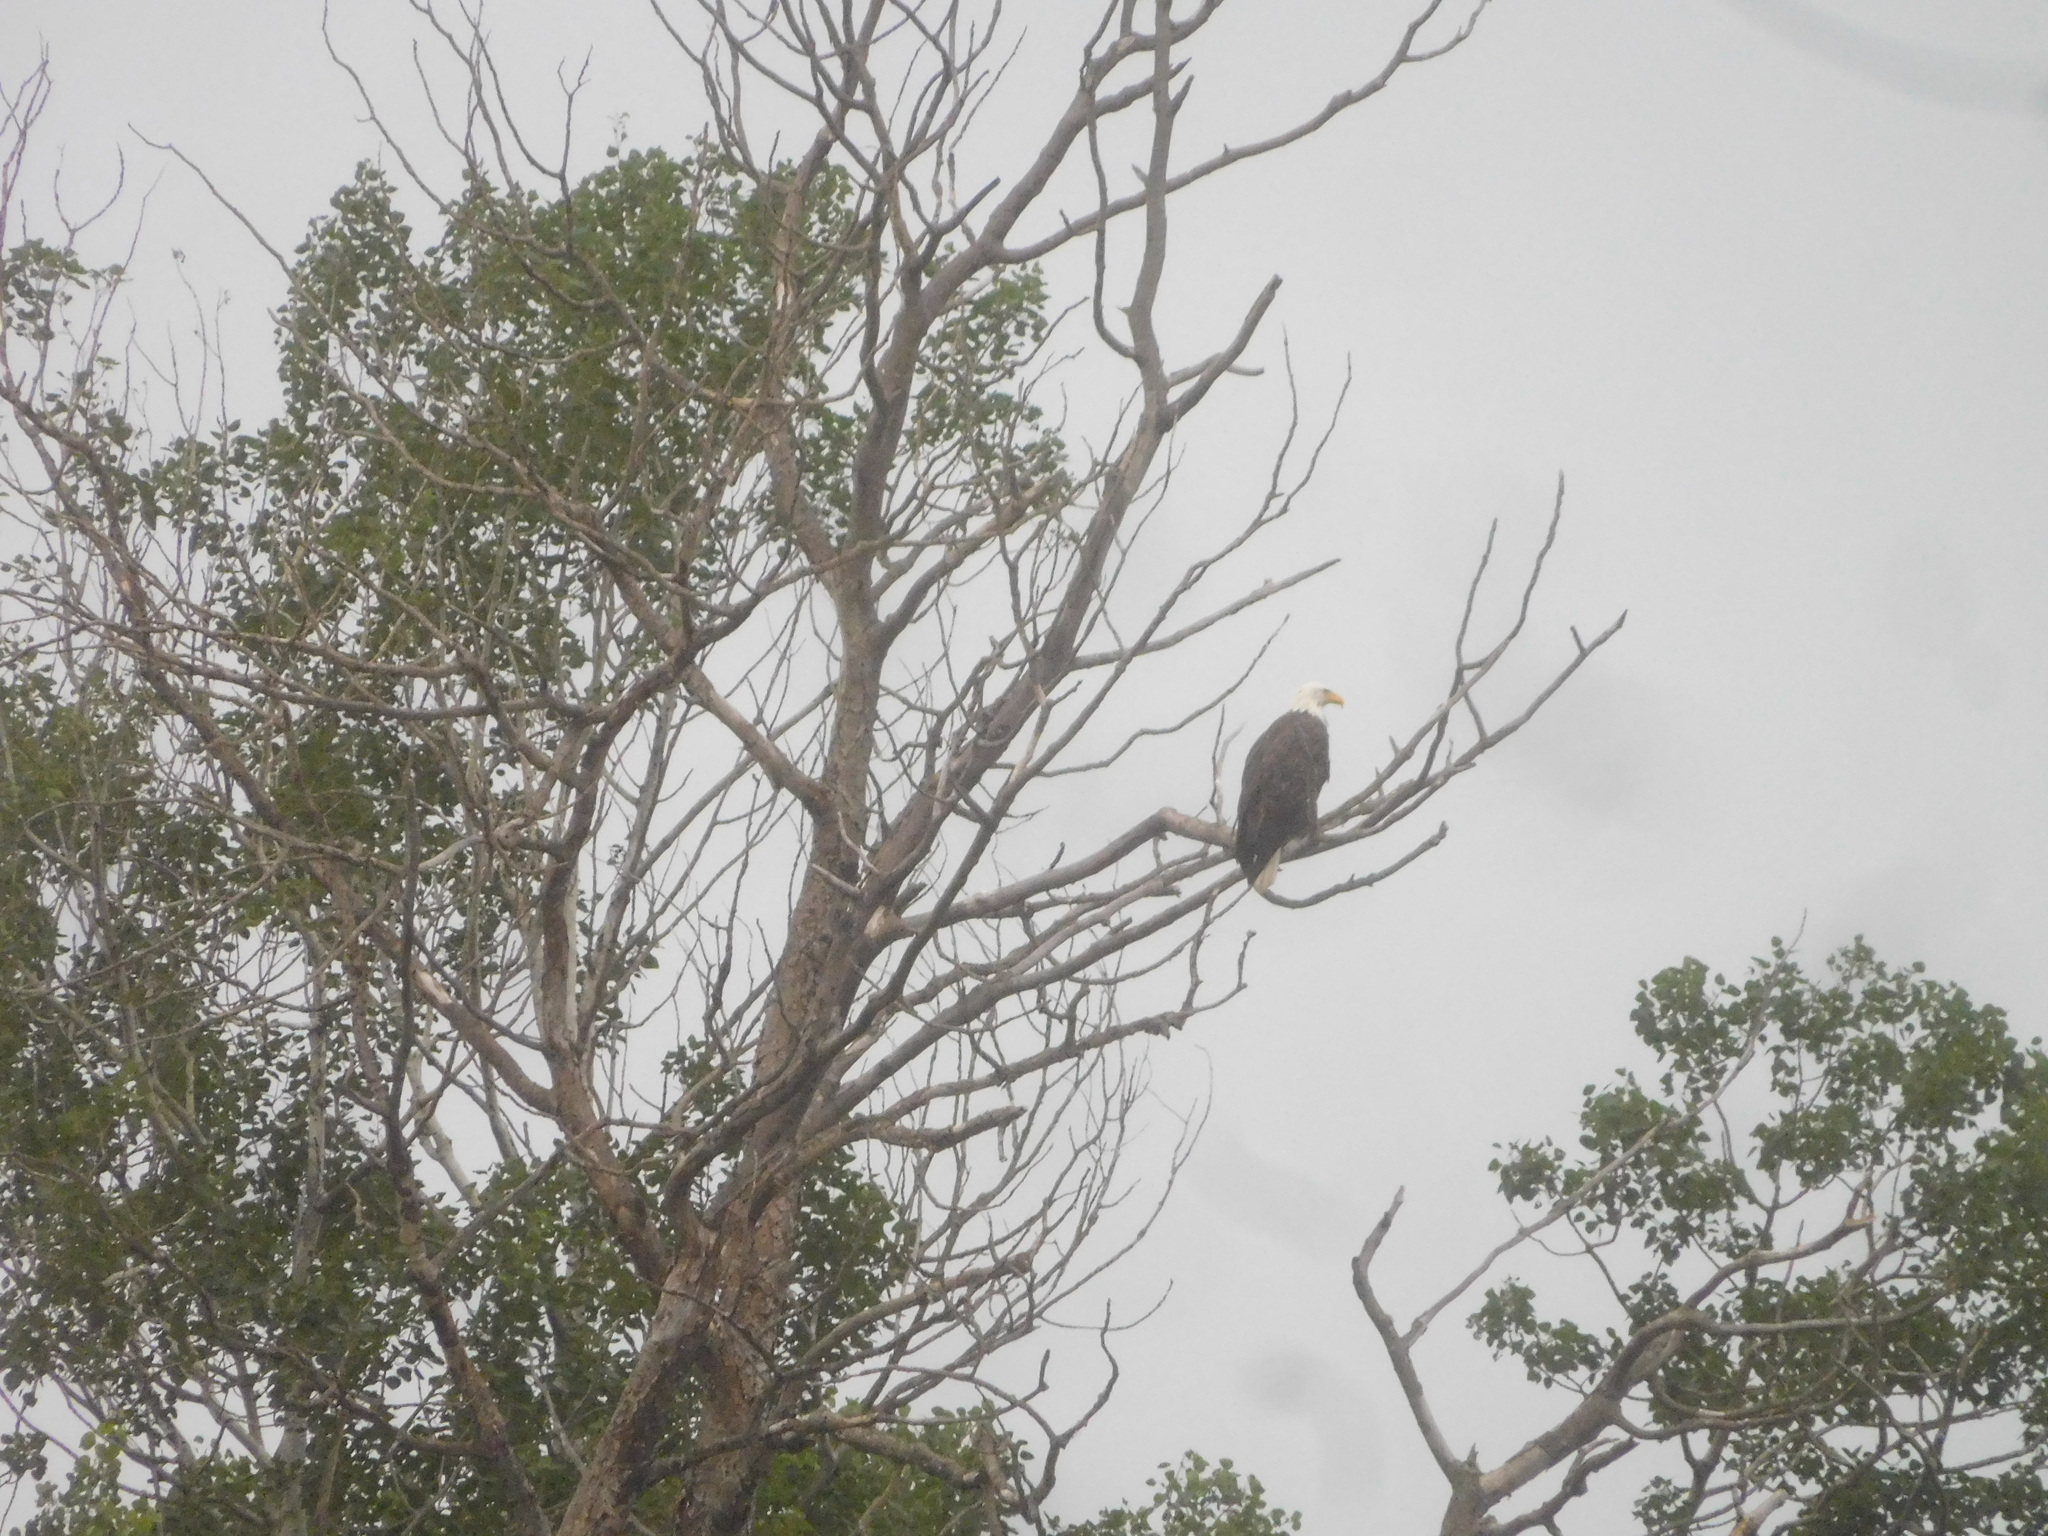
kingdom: Animalia
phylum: Chordata
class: Aves
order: Accipitriformes
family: Accipitridae
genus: Haliaeetus
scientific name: Haliaeetus leucocephalus
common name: Bald eagle
